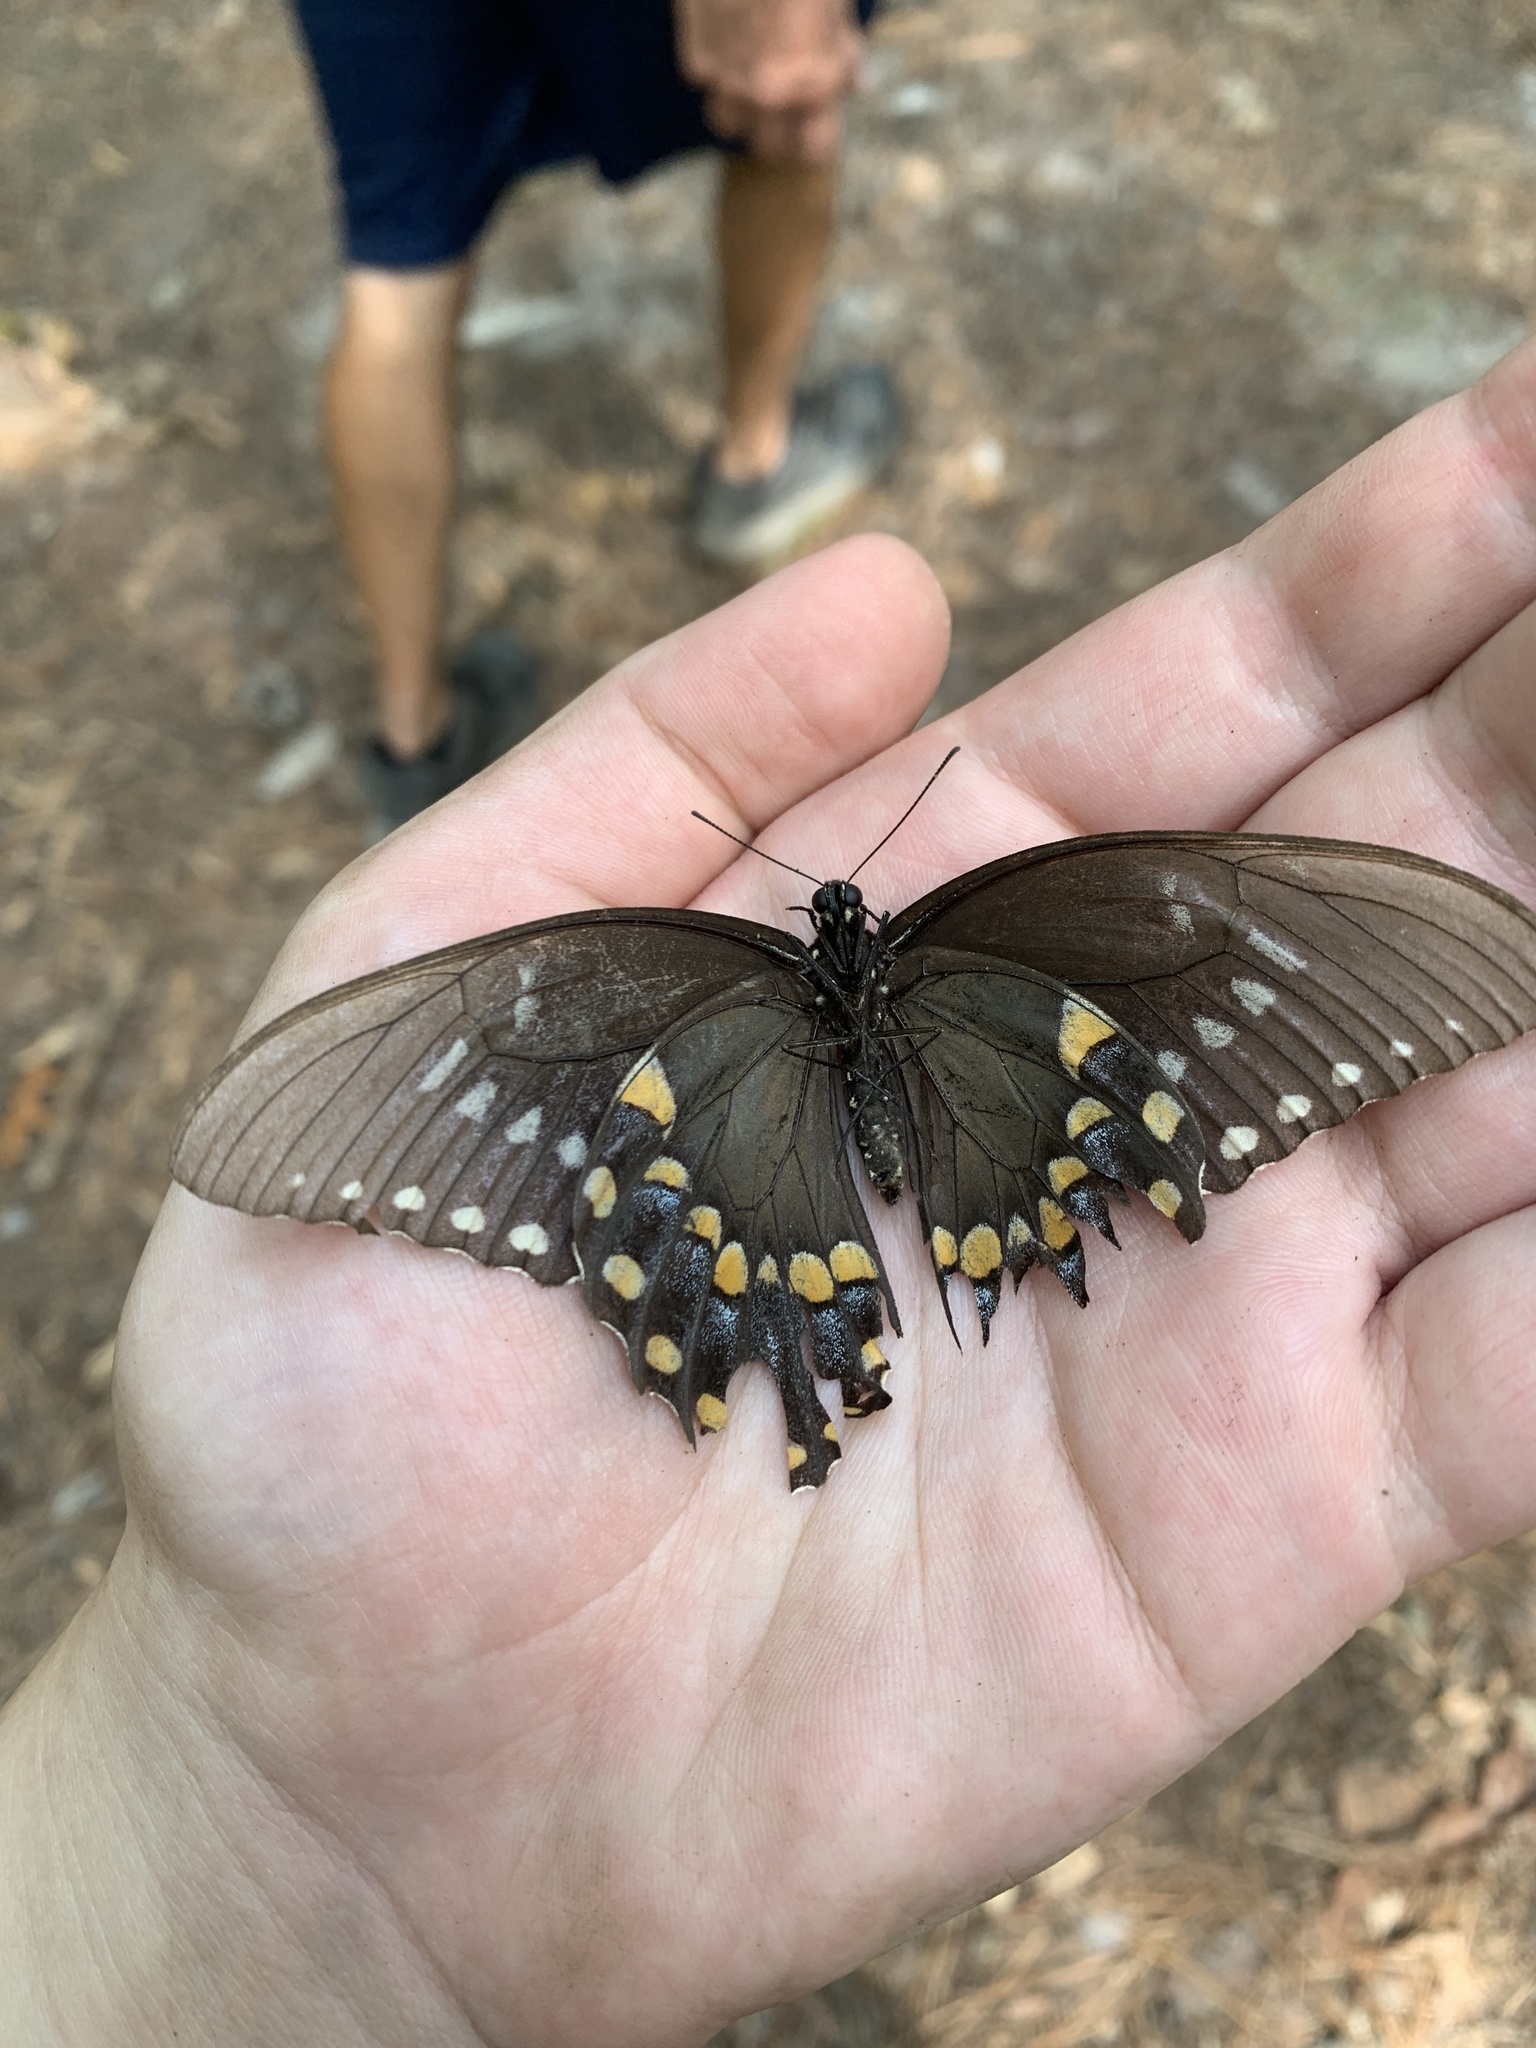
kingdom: Animalia
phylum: Arthropoda
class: Insecta
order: Lepidoptera
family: Papilionidae
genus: Papilio
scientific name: Papilio troilus
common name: Spicebush swallowtail
